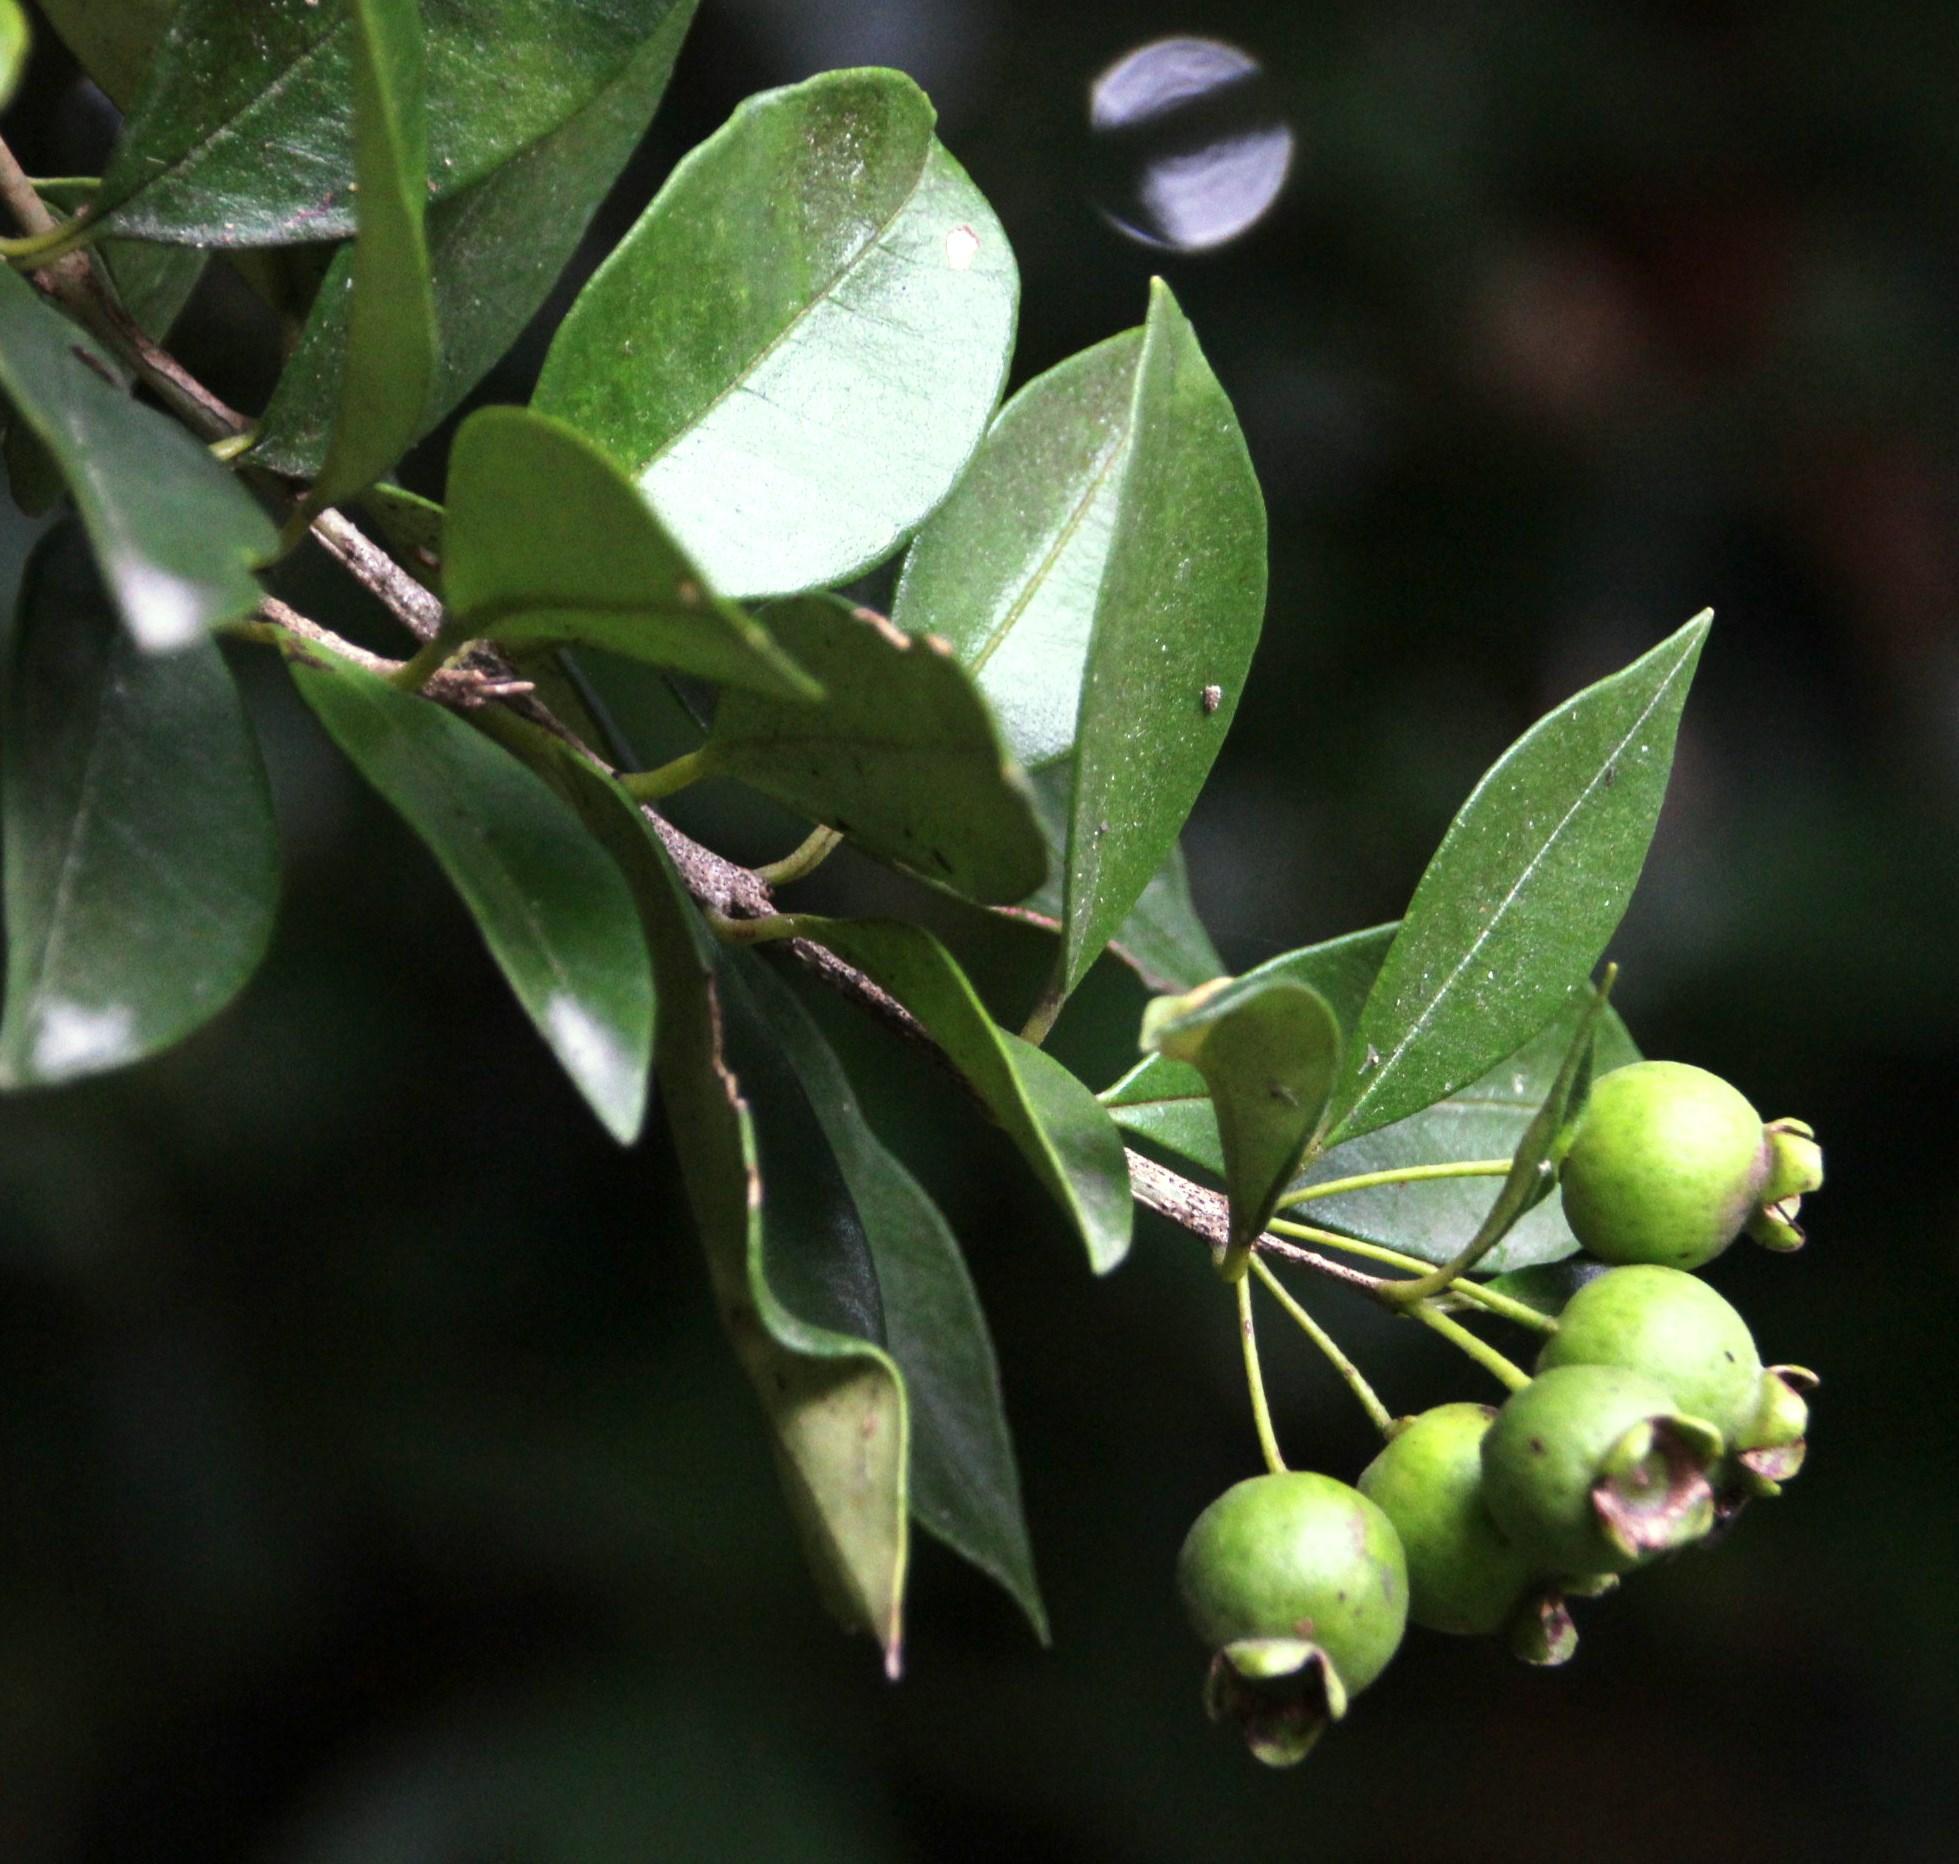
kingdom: Plantae
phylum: Tracheophyta
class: Magnoliopsida
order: Myrtales
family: Myrtaceae
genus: Myrceugenia
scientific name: Myrceugenia planipes
